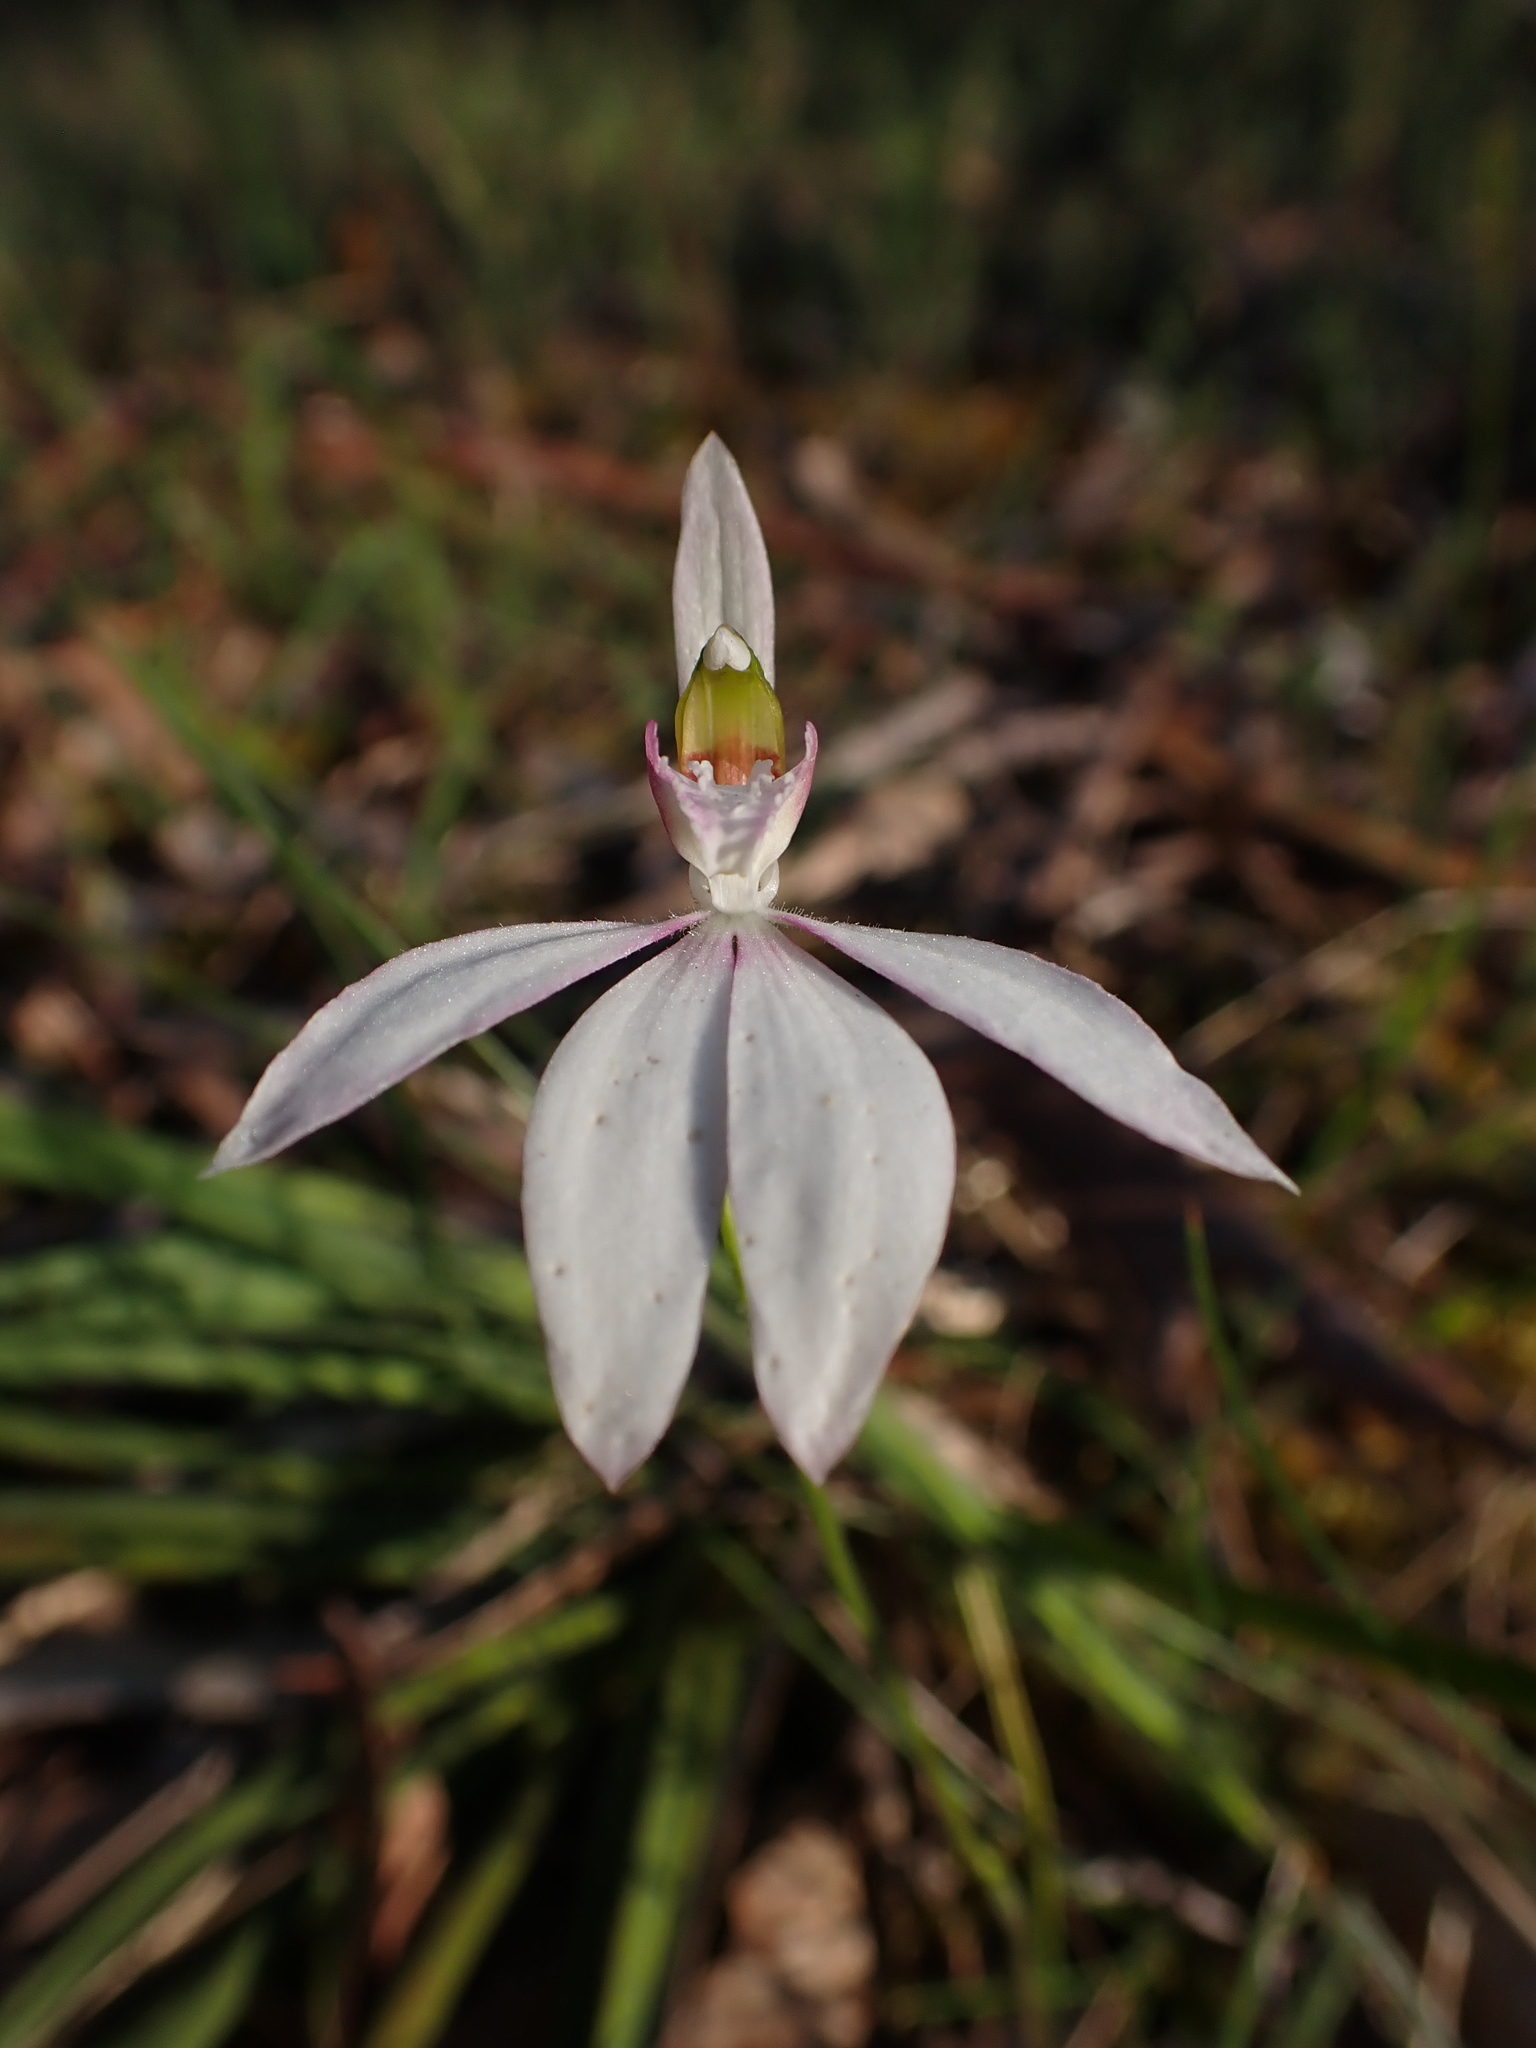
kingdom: Plantae
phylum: Tracheophyta
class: Liliopsida
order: Asparagales
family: Orchidaceae
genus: Caladenia
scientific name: Caladenia catenata
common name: White caladenia
